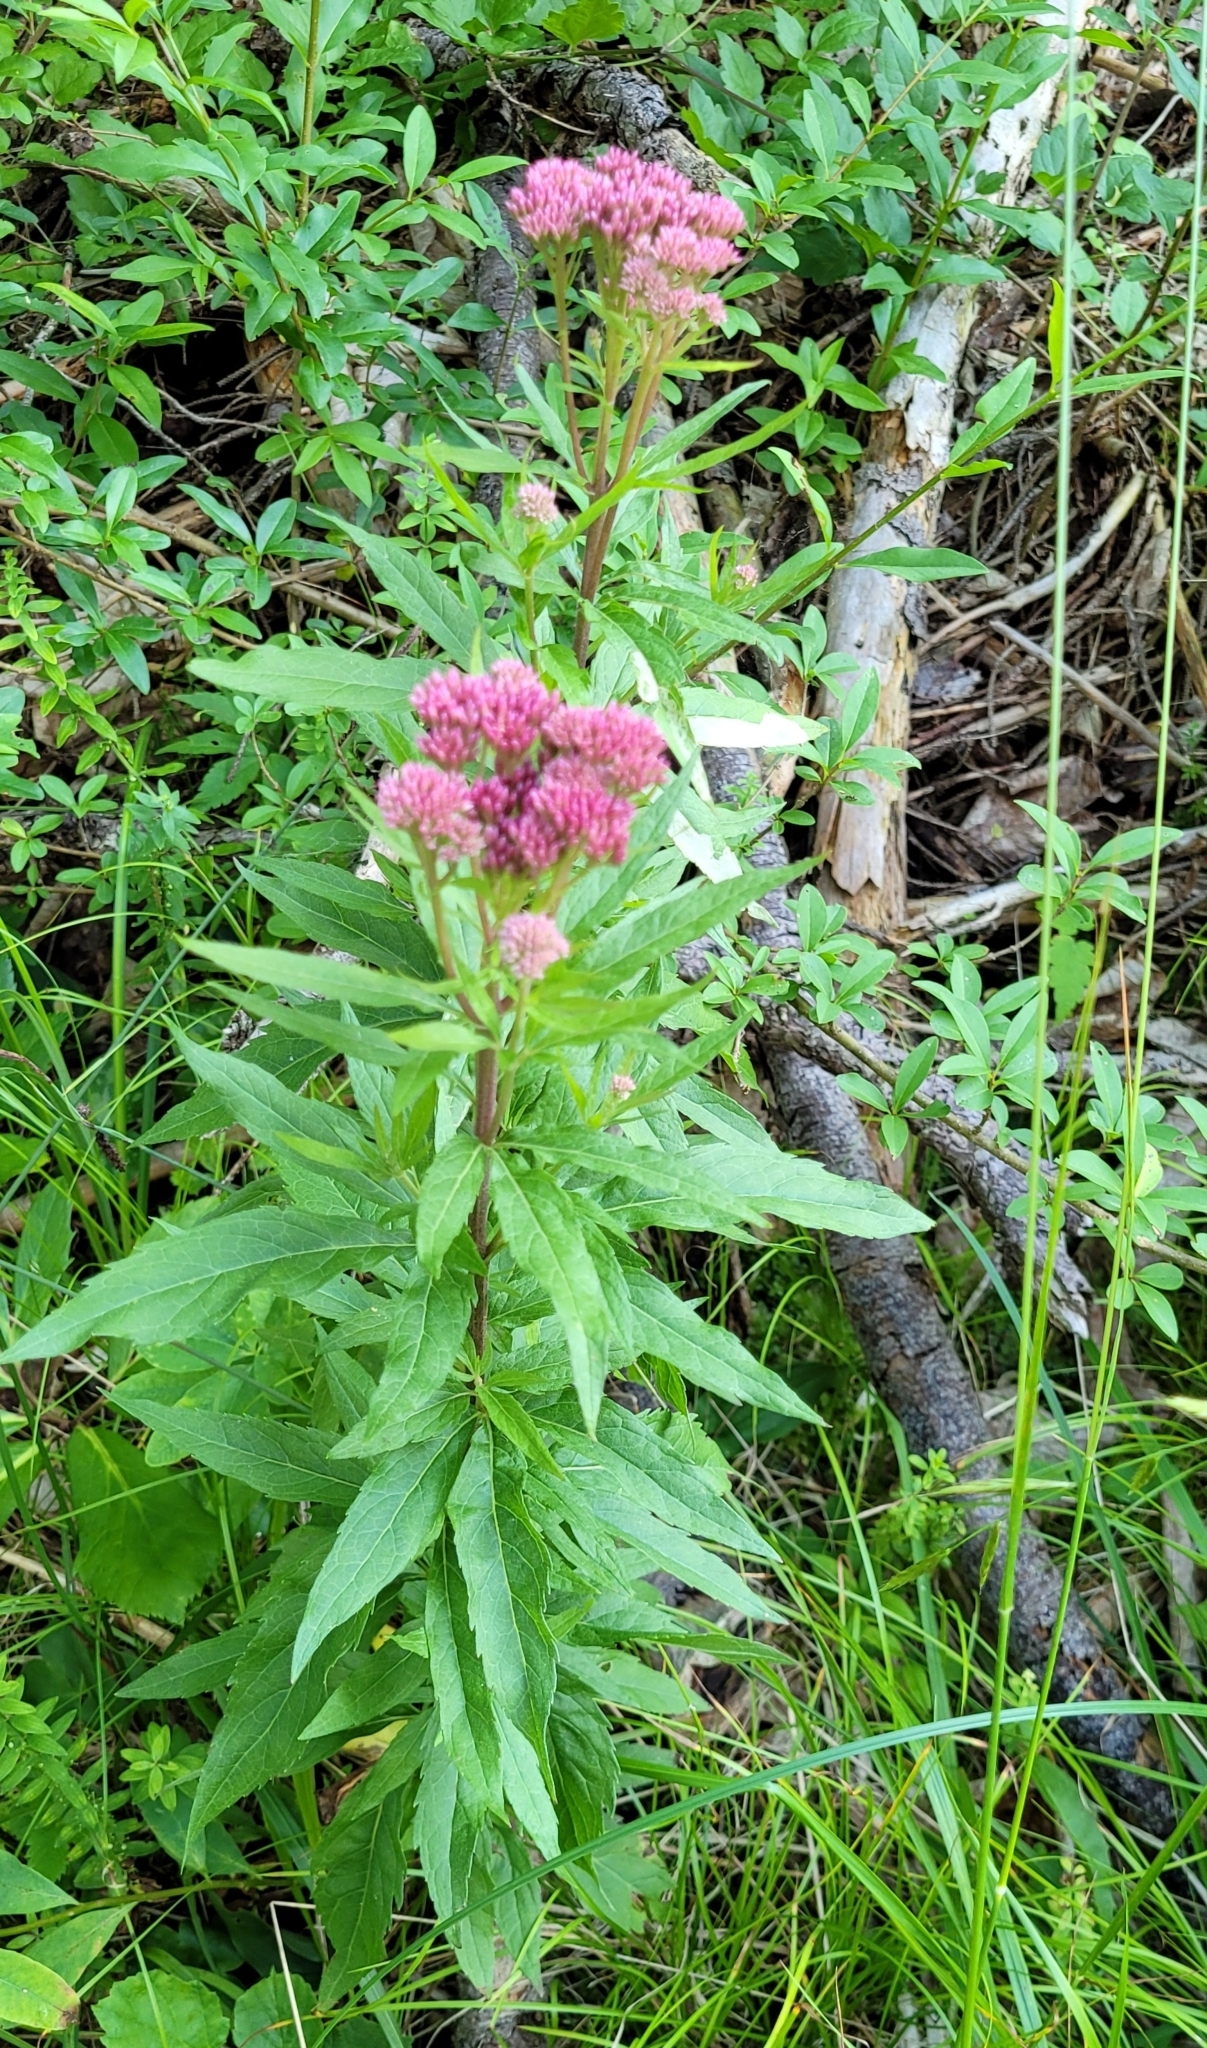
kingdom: Plantae
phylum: Tracheophyta
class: Magnoliopsida
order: Asterales
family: Asteraceae
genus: Eupatorium
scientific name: Eupatorium cannabinum
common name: Hemp-agrimony
